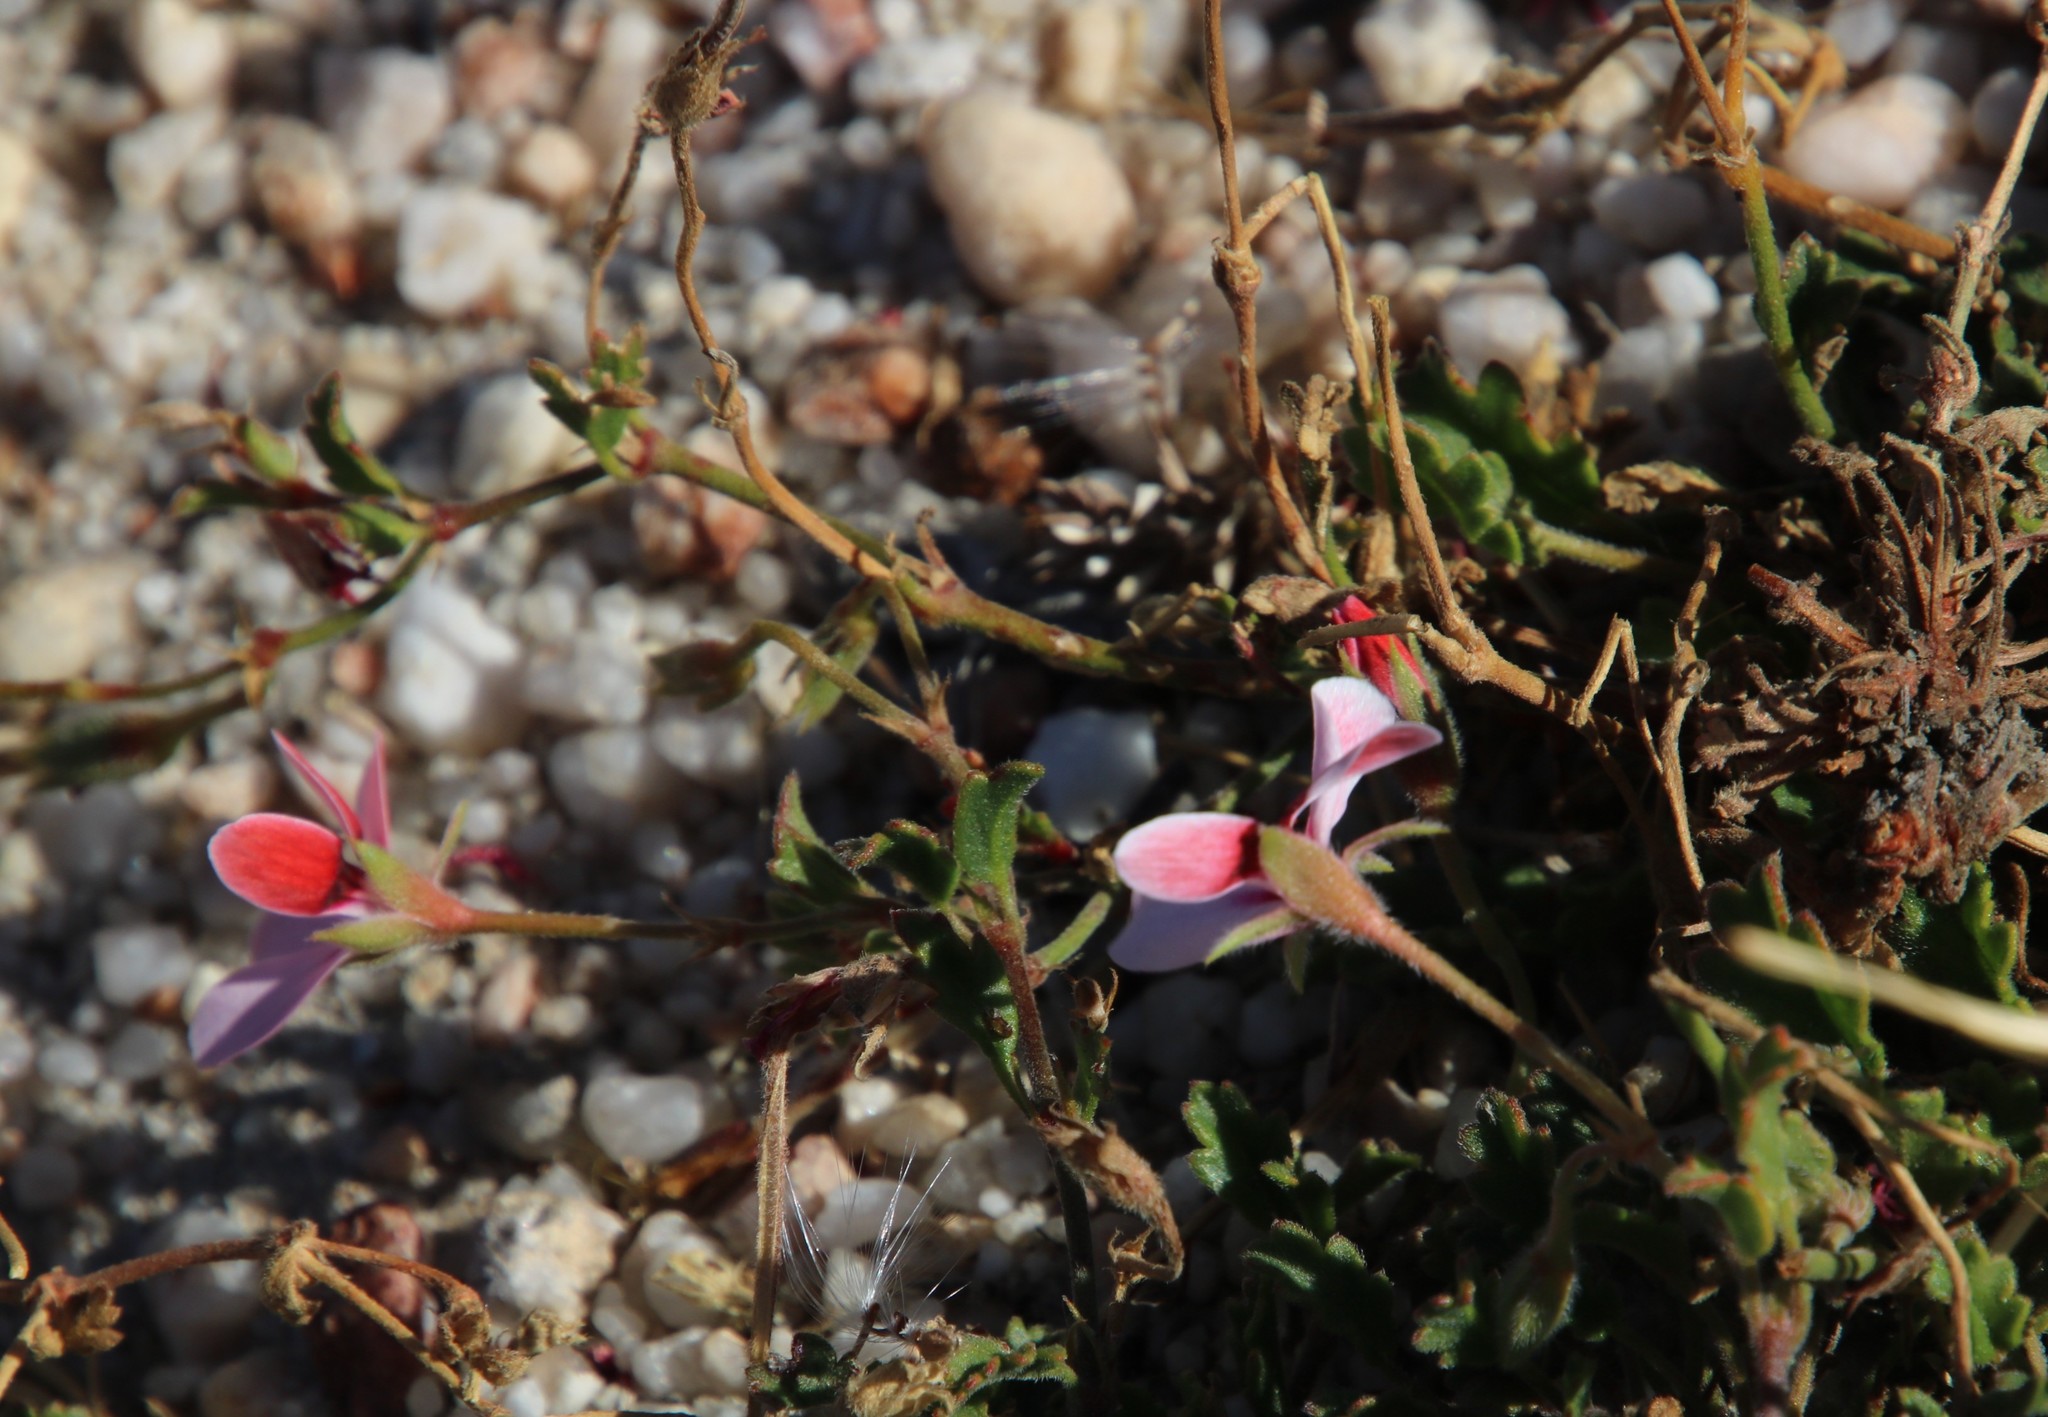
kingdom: Plantae
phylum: Tracheophyta
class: Magnoliopsida
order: Geraniales
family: Geraniaceae
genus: Pelargonium
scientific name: Pelargonium capillare
